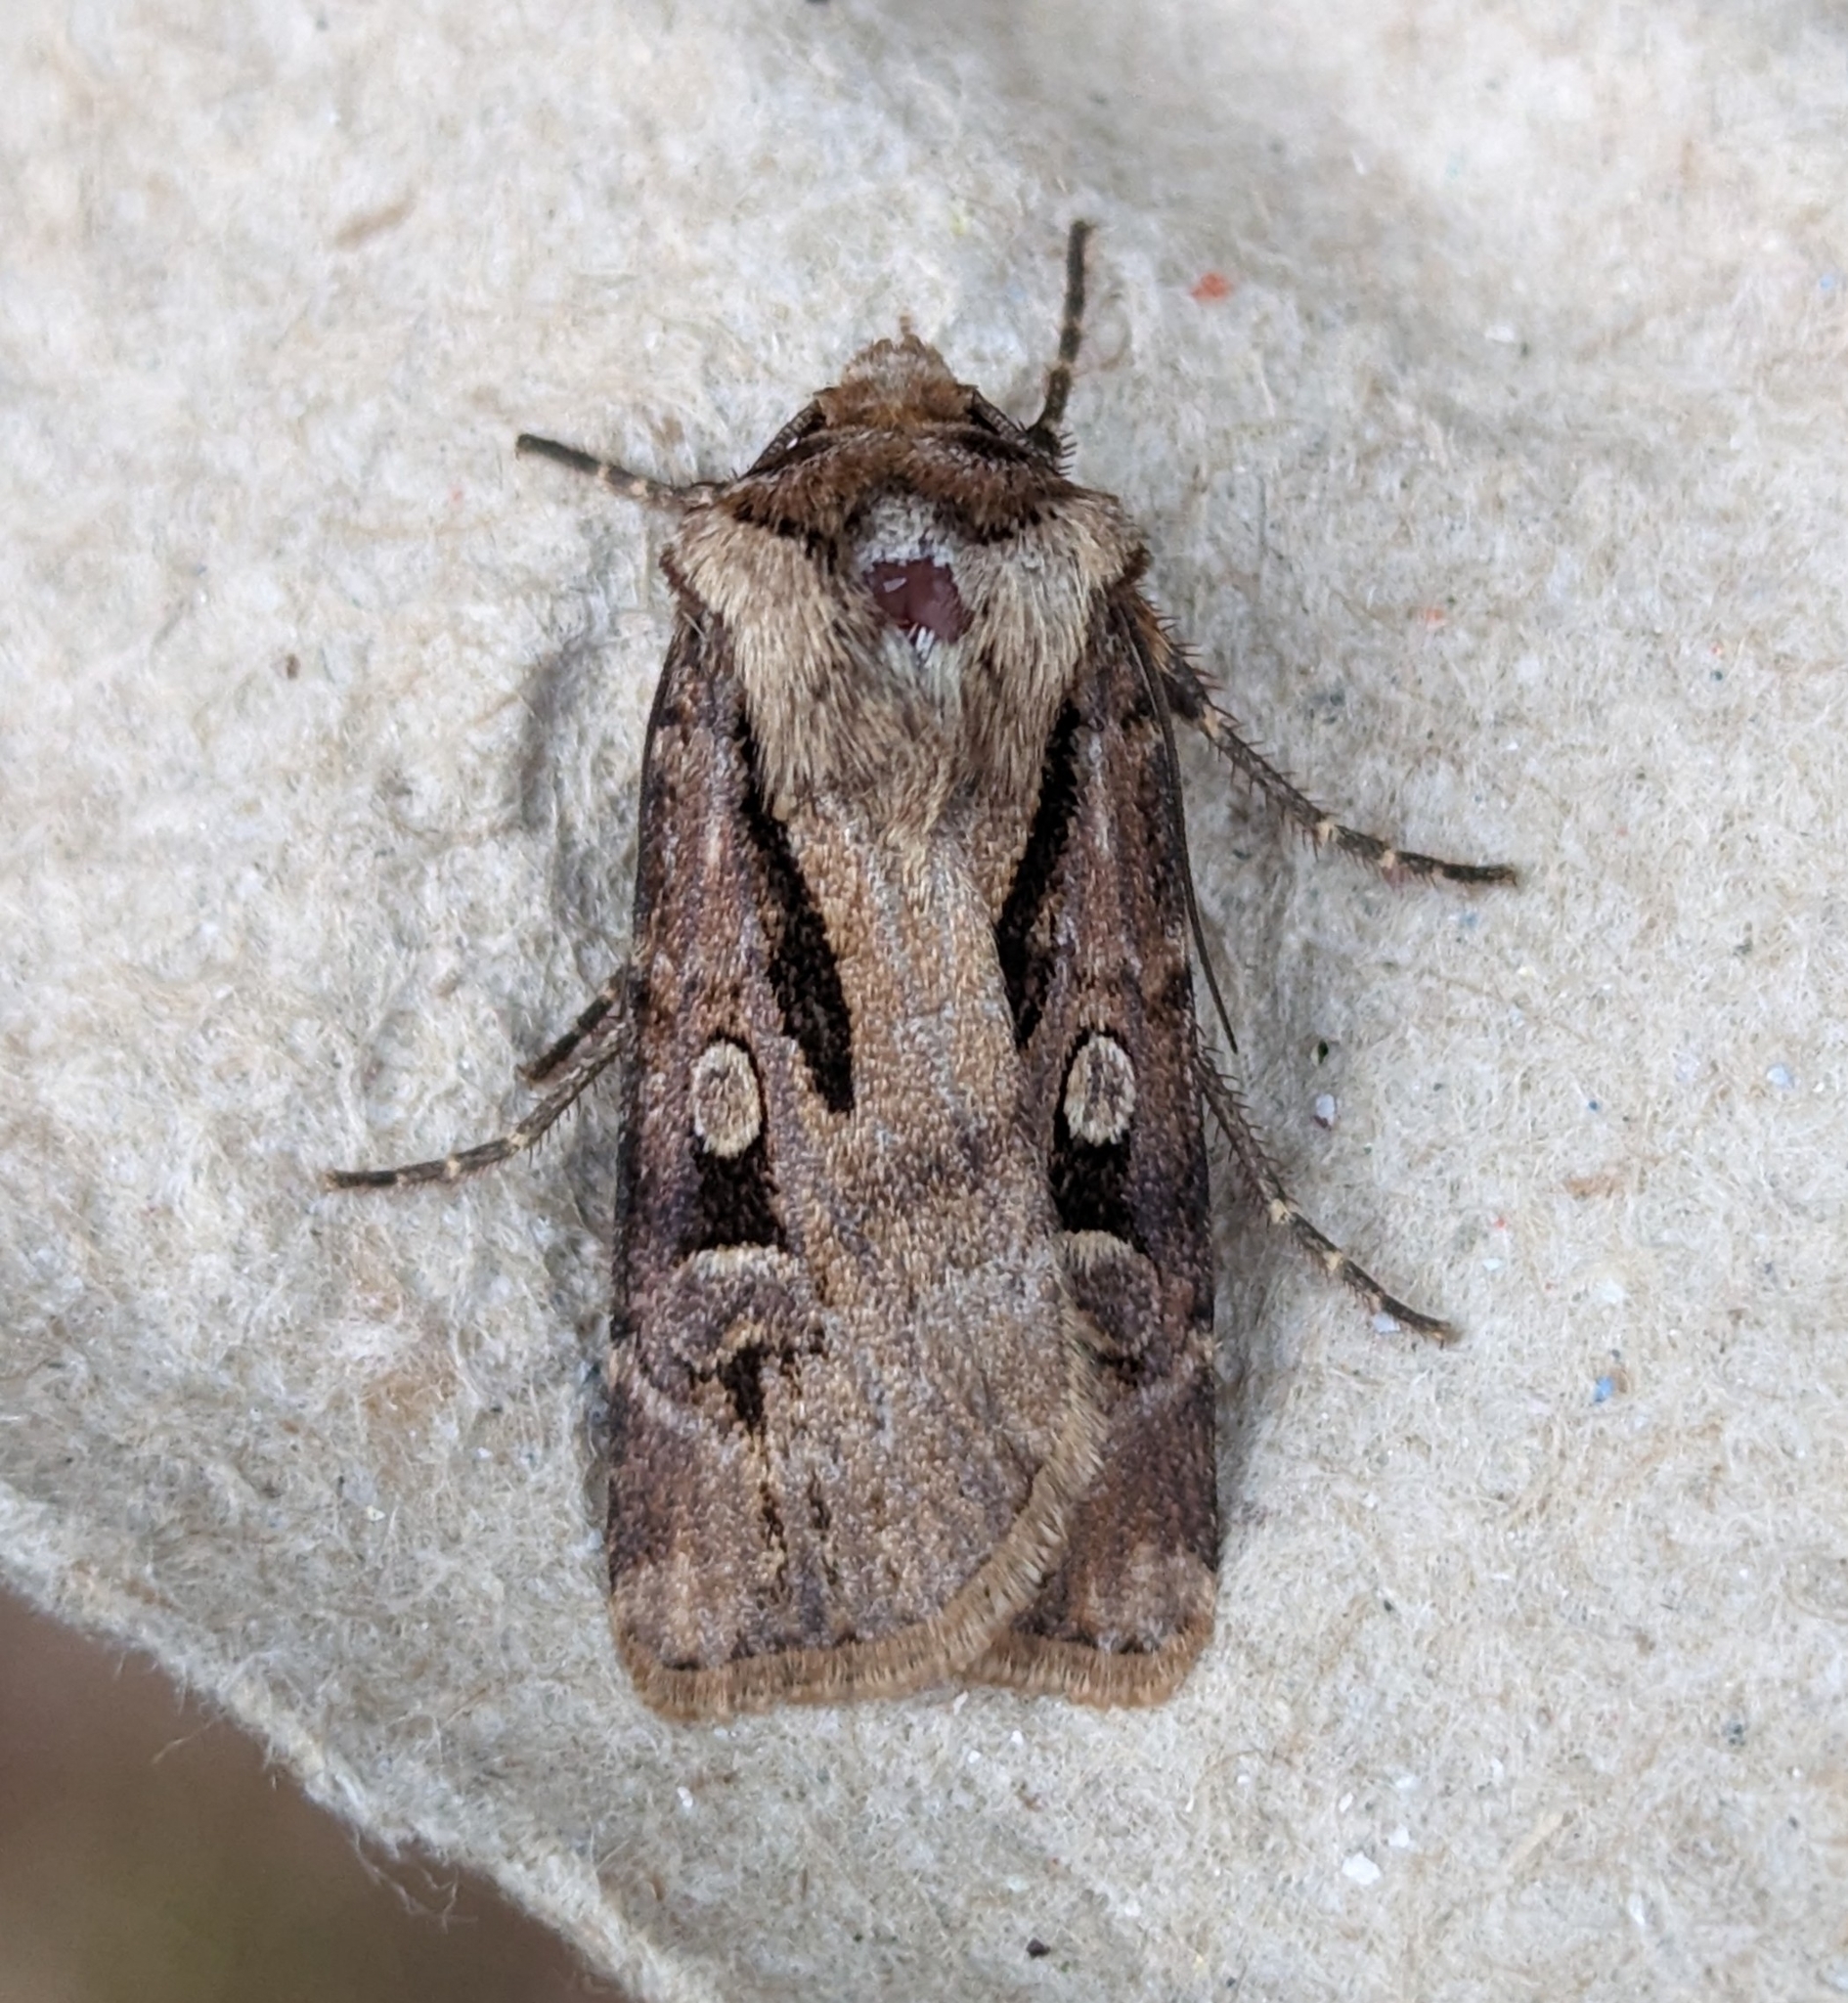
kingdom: Animalia
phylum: Arthropoda
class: Insecta
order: Lepidoptera
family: Noctuidae
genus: Agrotis
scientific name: Agrotis vancouverensis
